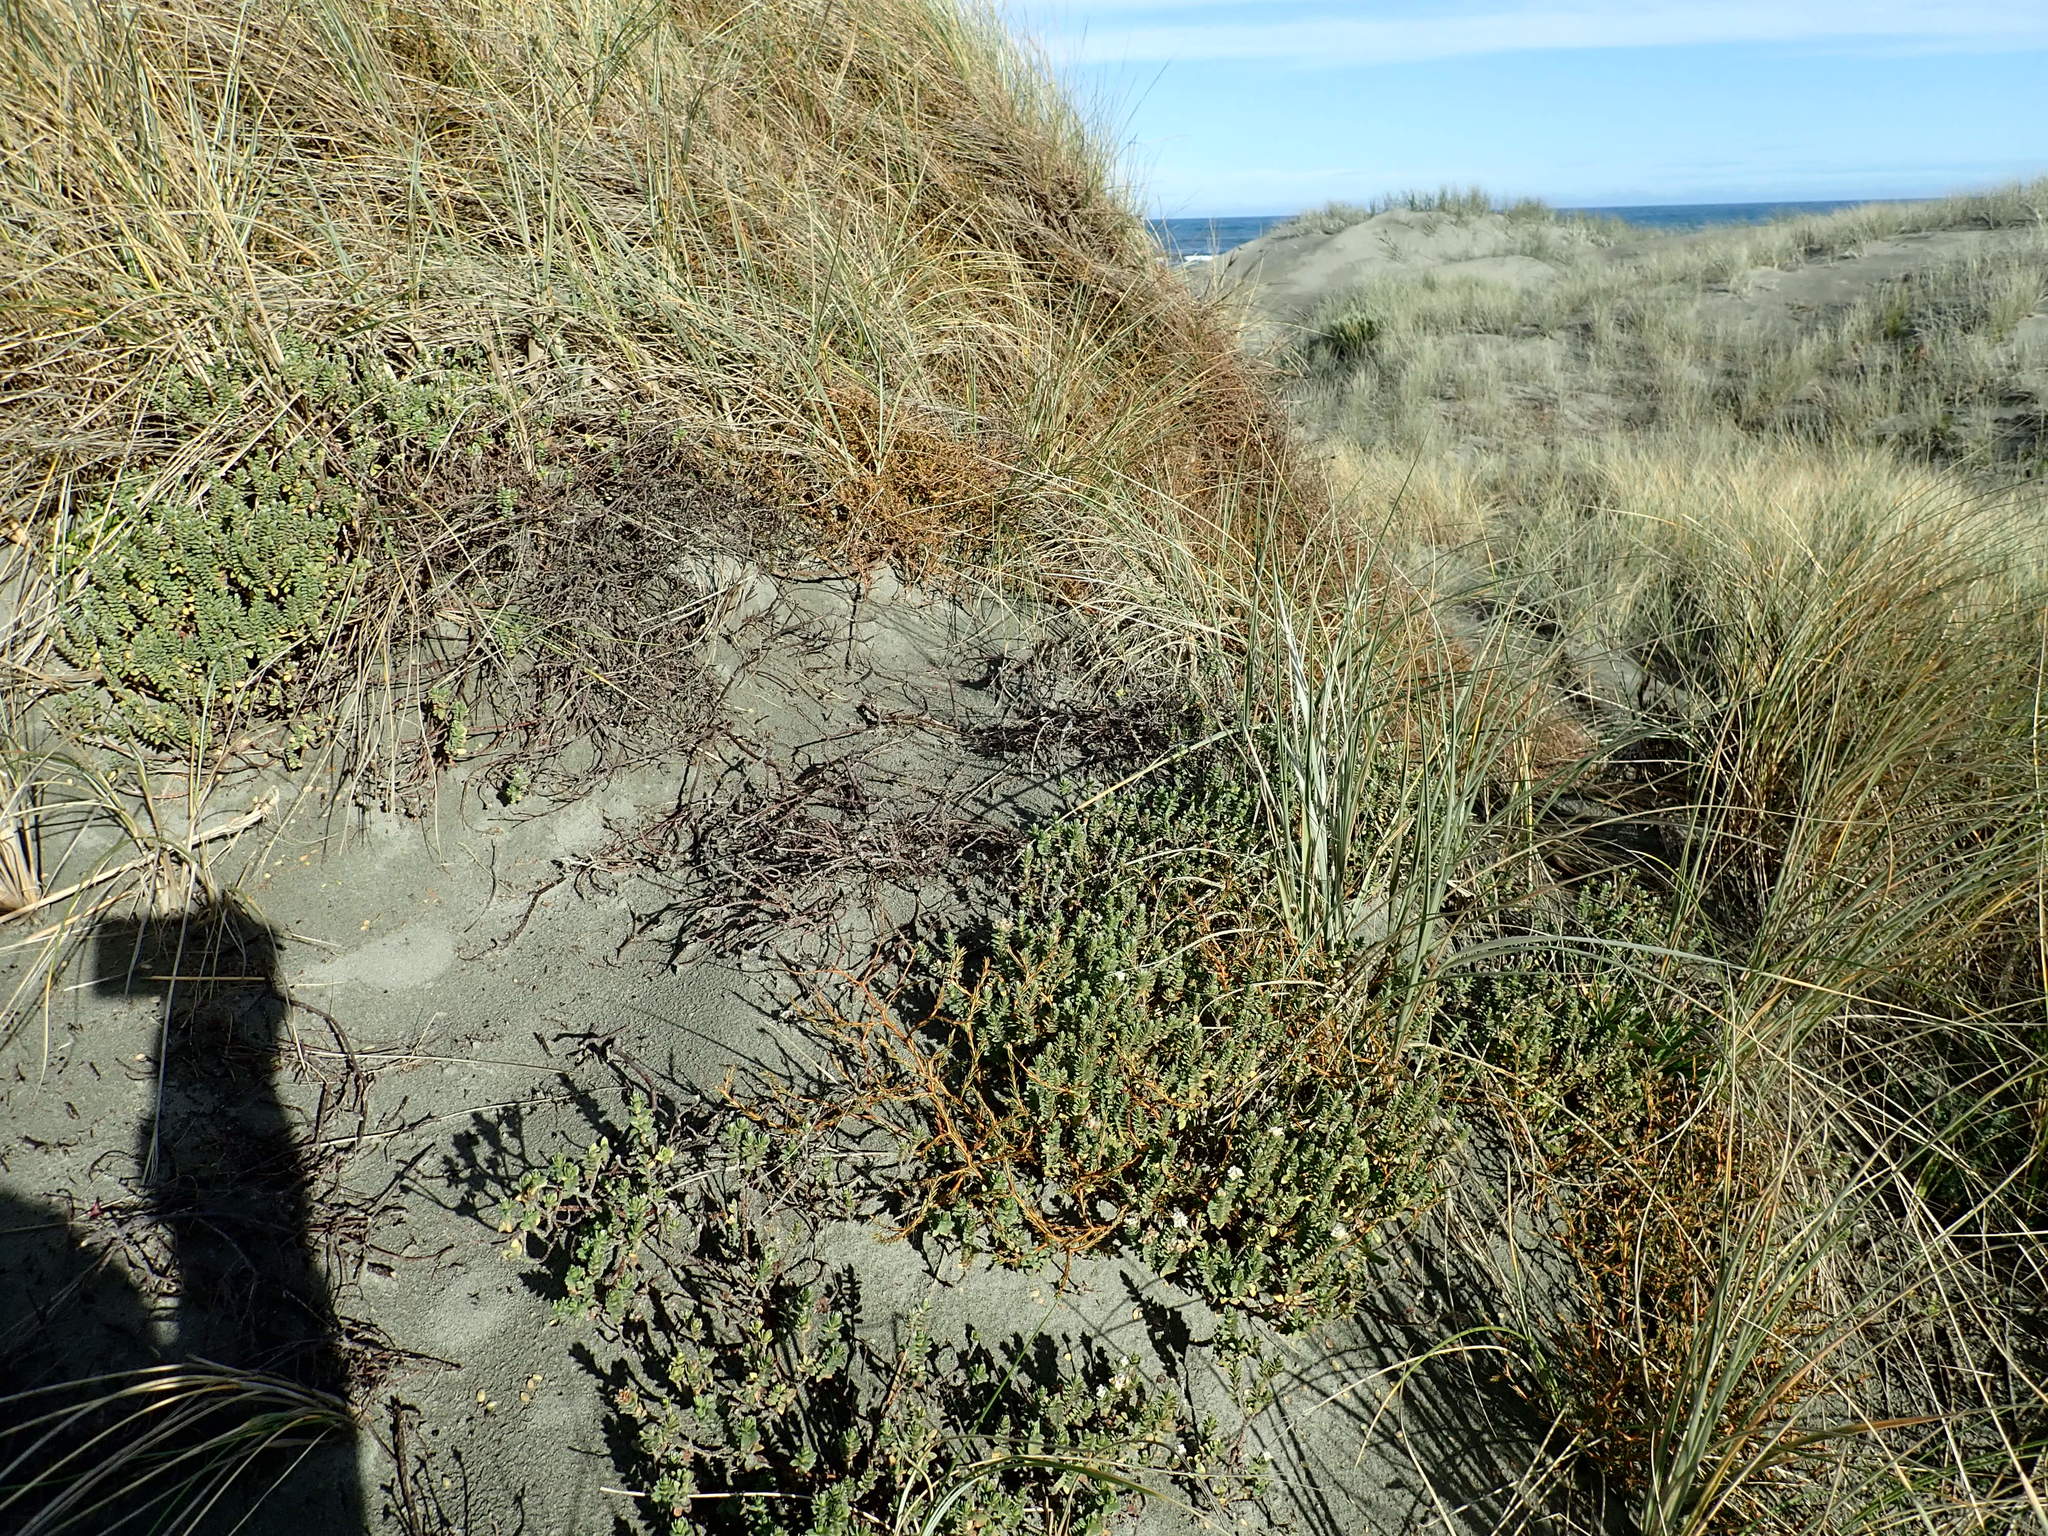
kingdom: Plantae
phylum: Tracheophyta
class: Magnoliopsida
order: Gentianales
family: Rubiaceae
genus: Coprosma
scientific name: Coprosma acerosa
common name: Sand coprosma
